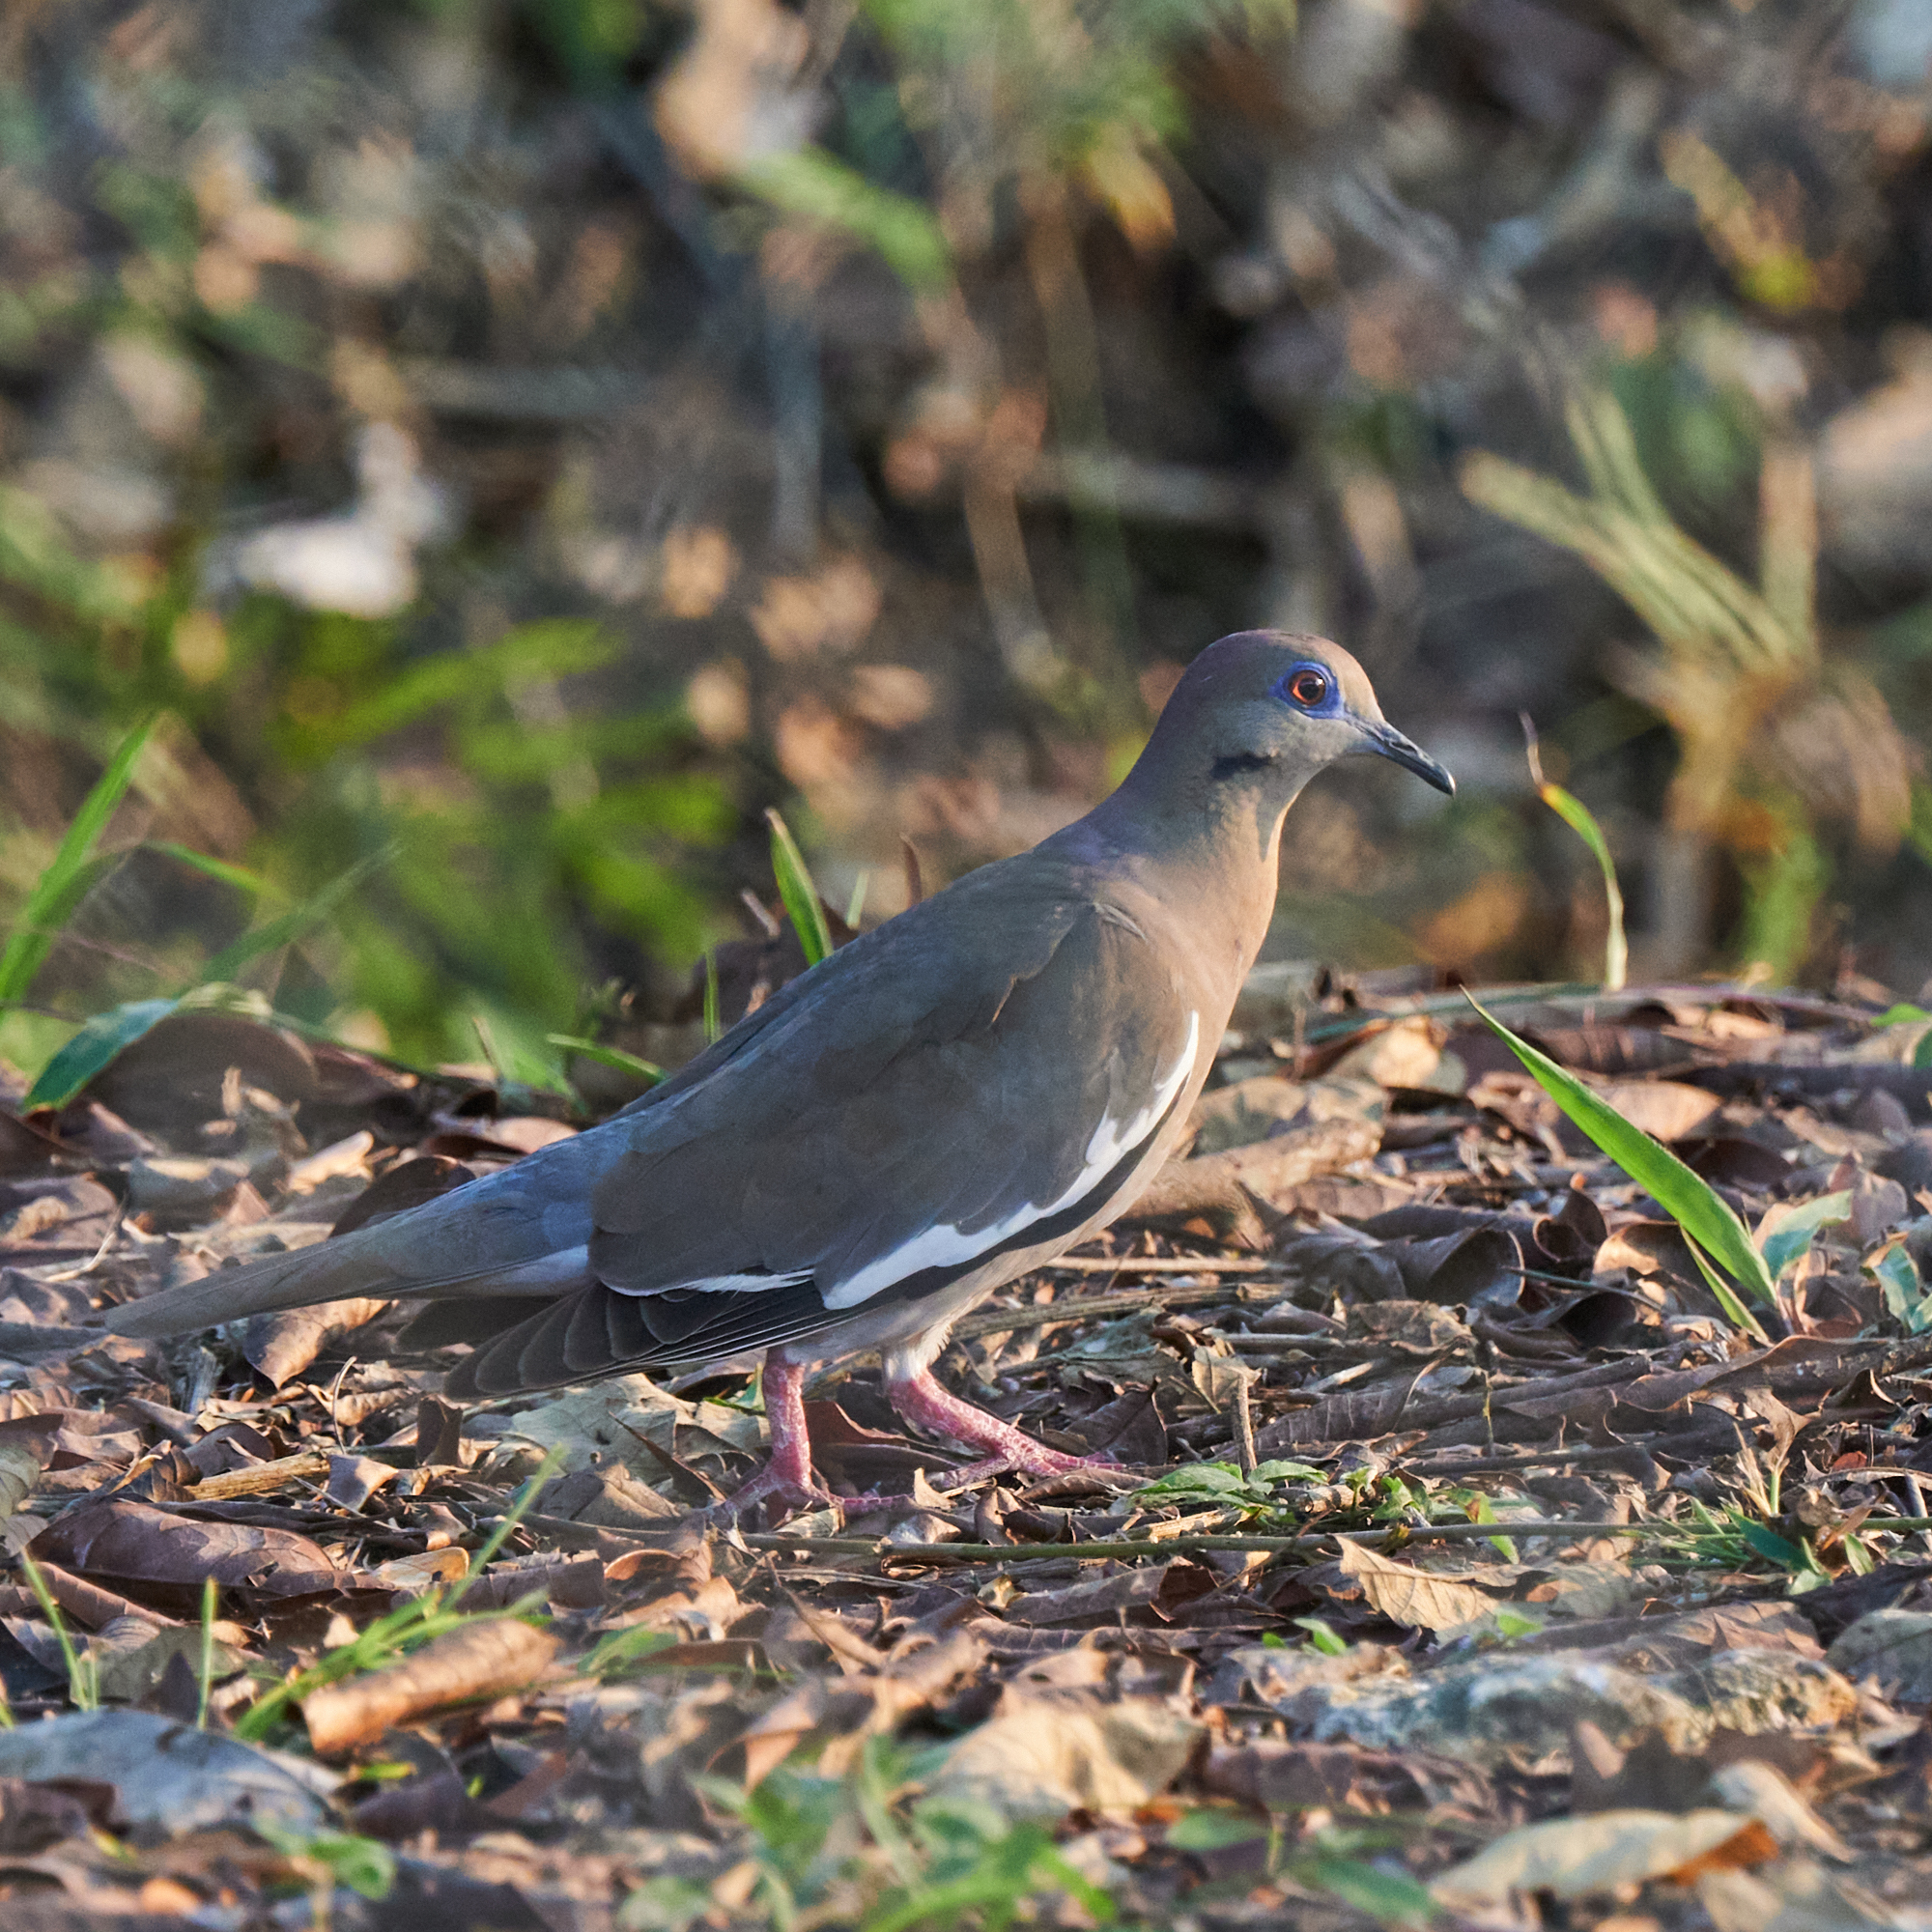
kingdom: Animalia
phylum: Chordata
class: Aves
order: Columbiformes
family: Columbidae
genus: Zenaida
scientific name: Zenaida asiatica
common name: White-winged dove
